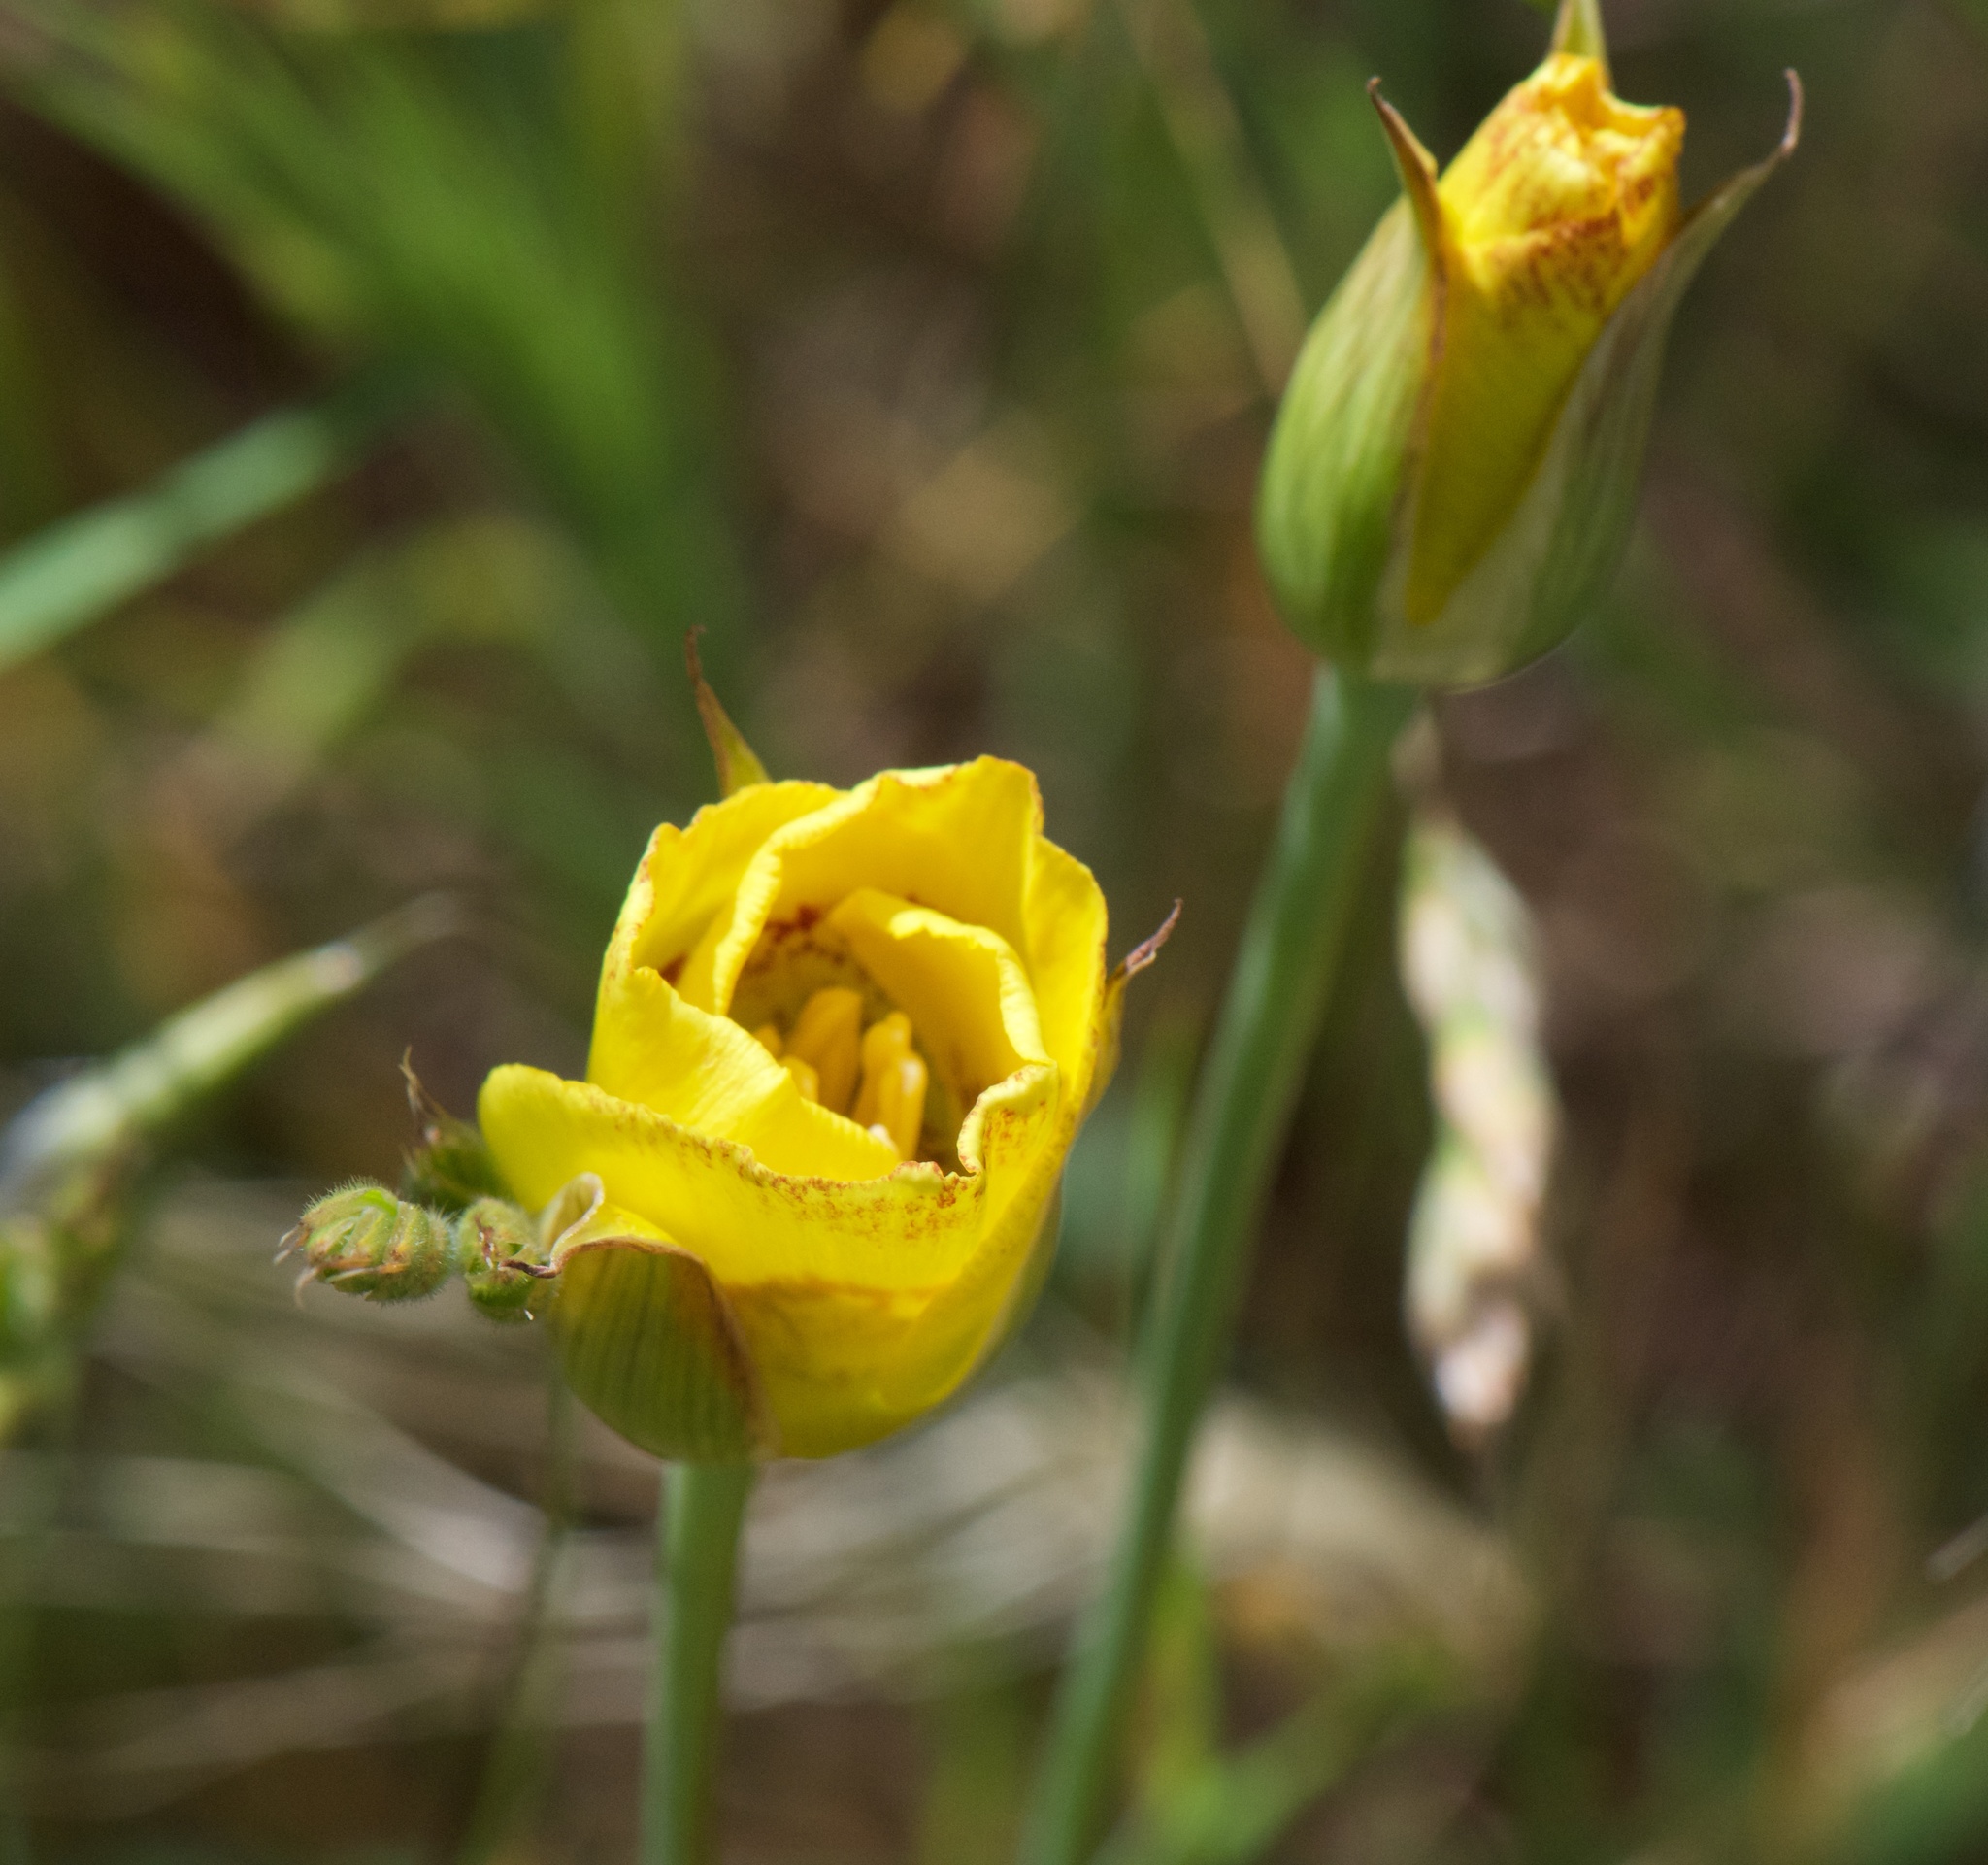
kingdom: Plantae
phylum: Tracheophyta
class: Liliopsida
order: Liliales
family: Liliaceae
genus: Calochortus
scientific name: Calochortus luteus
